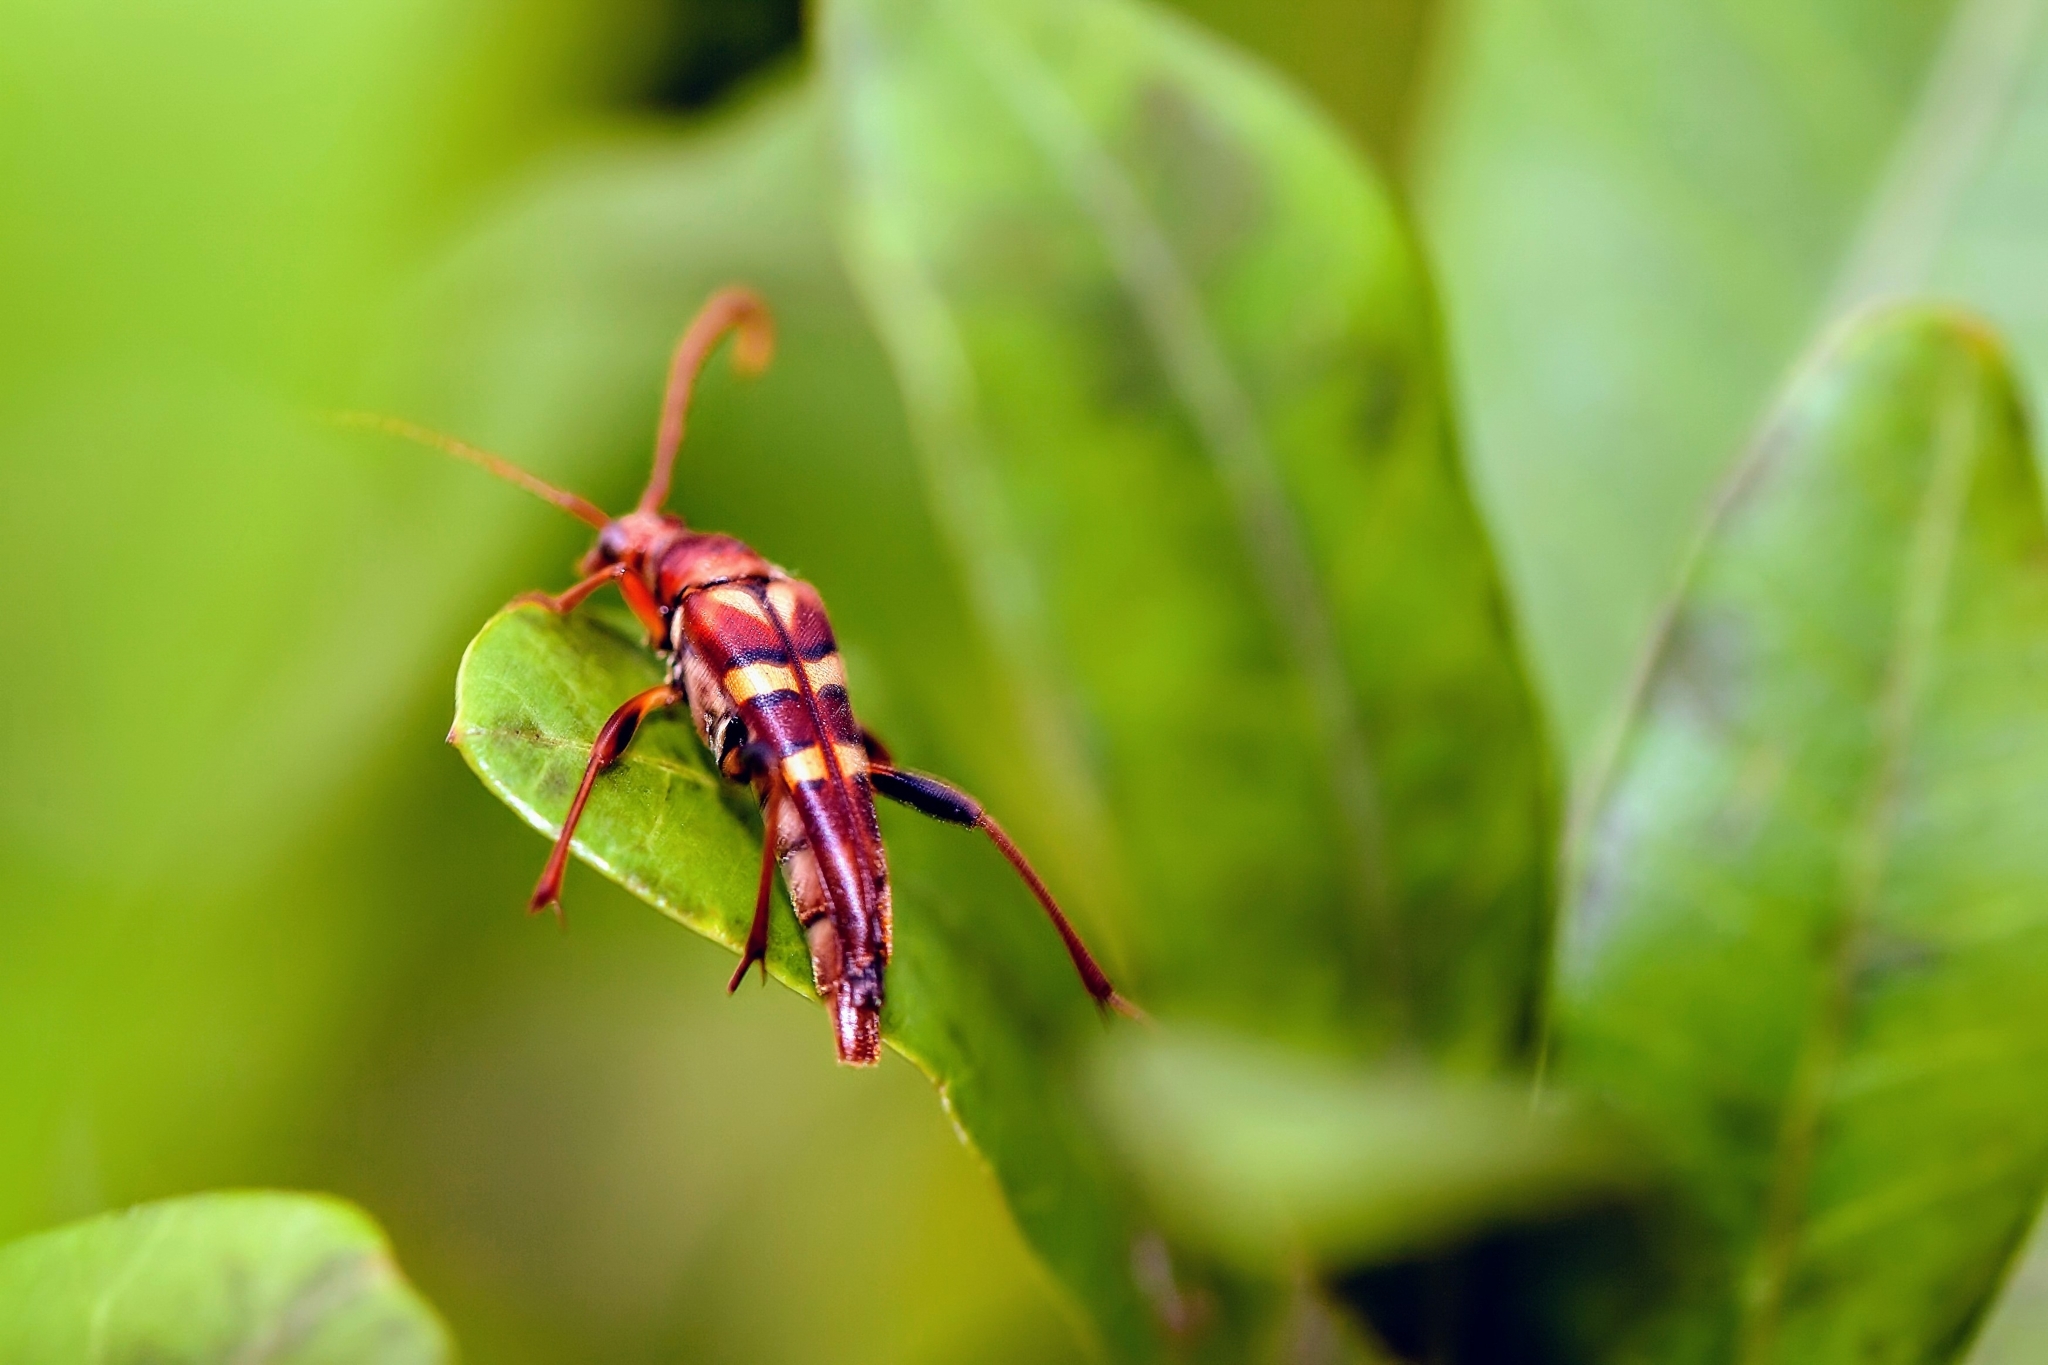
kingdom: Animalia
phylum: Arthropoda
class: Insecta
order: Coleoptera
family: Cerambycidae
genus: Strangalia
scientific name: Strangalia strigosa
